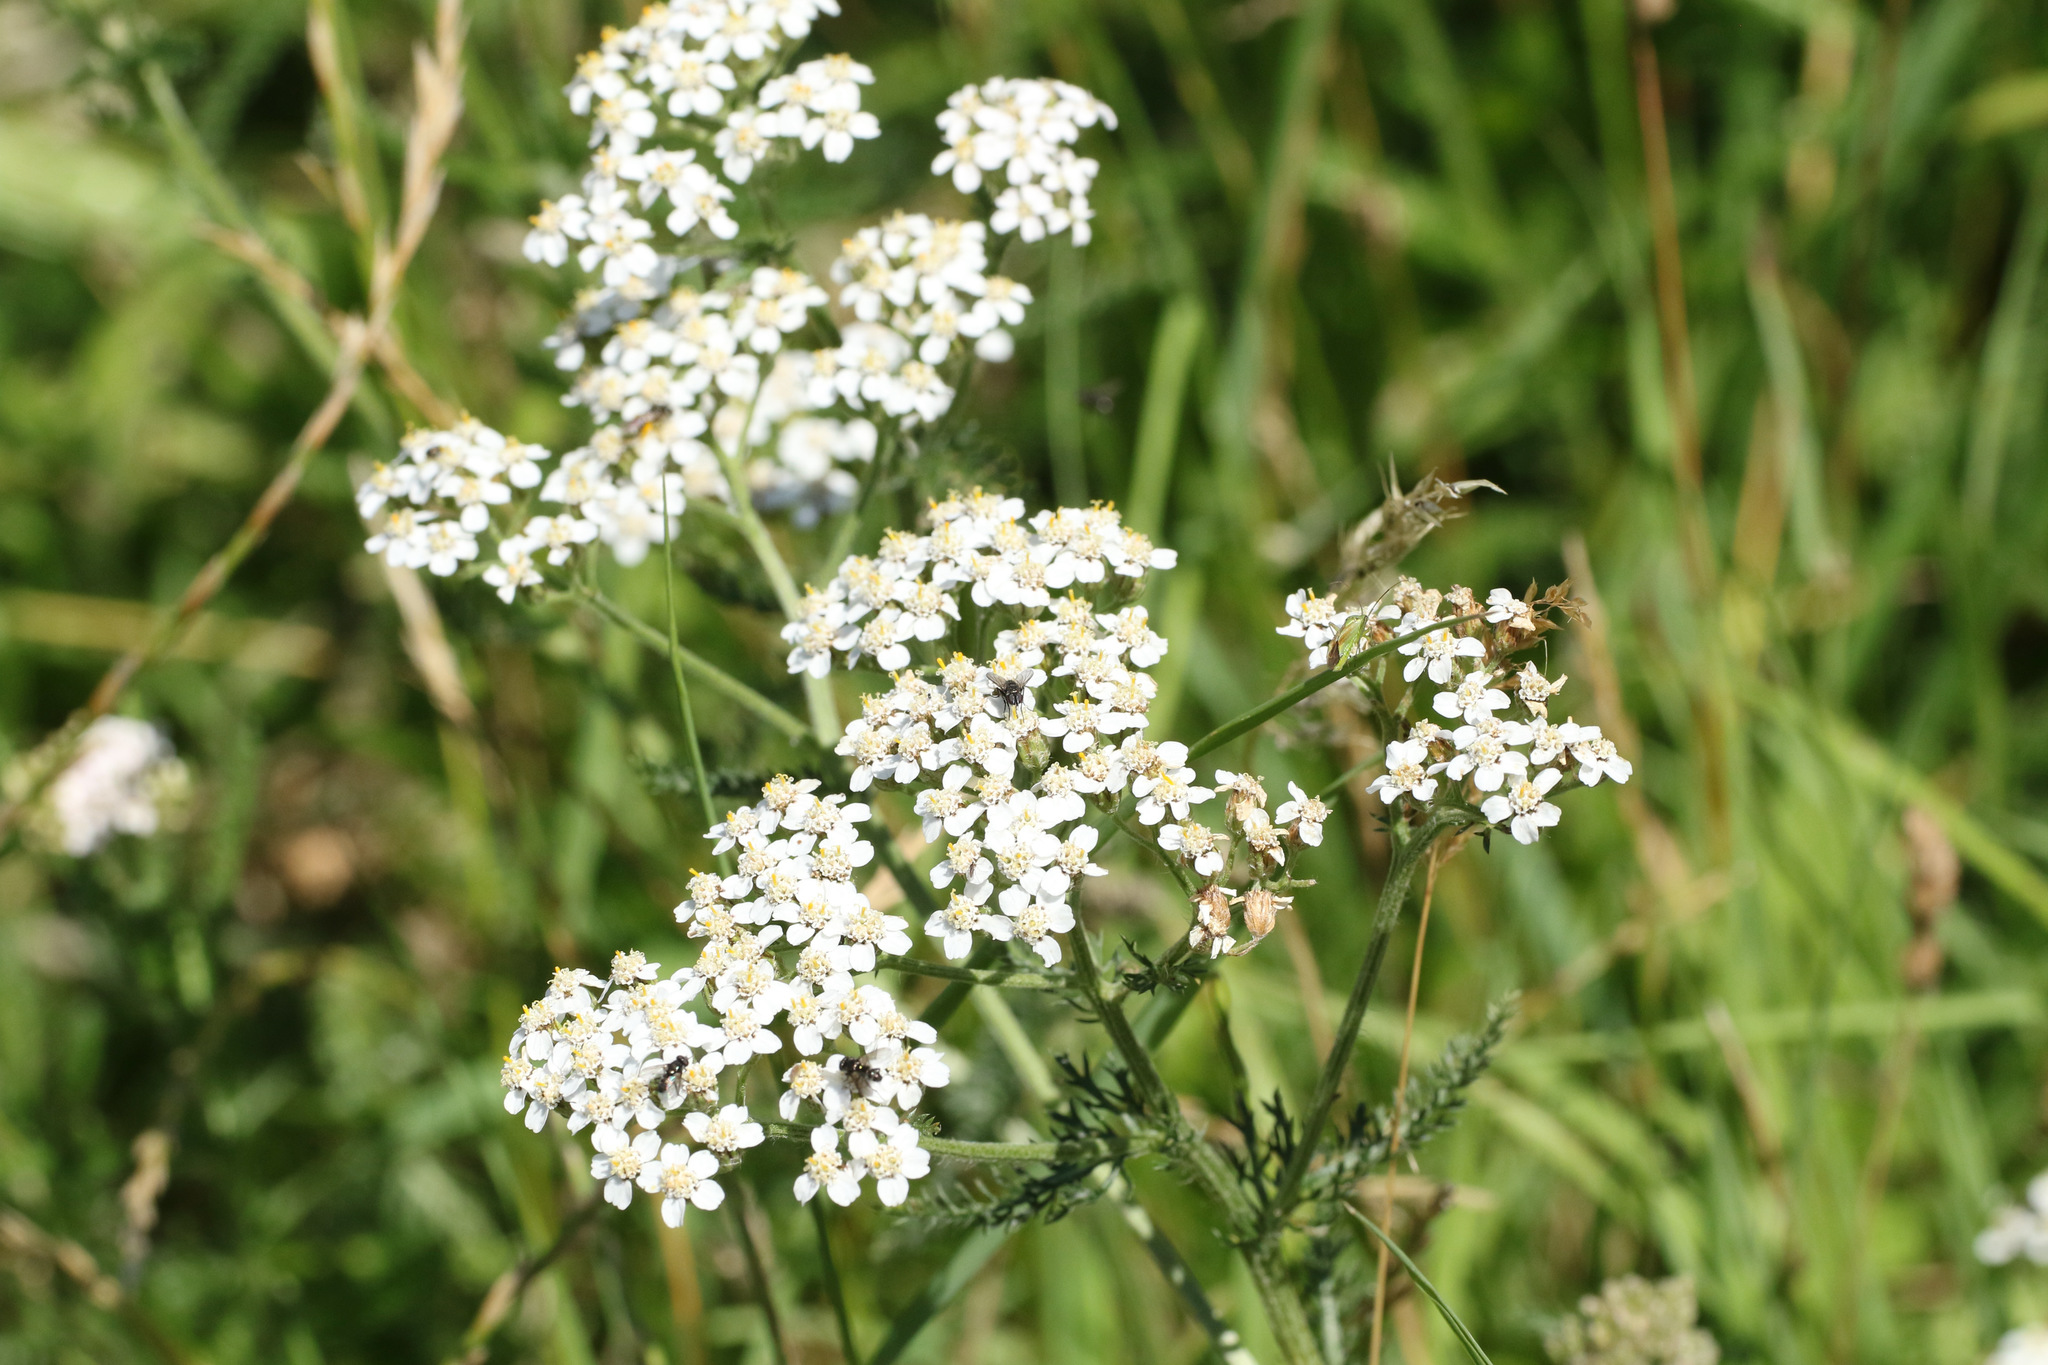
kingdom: Plantae
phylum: Tracheophyta
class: Magnoliopsida
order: Asterales
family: Asteraceae
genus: Achillea
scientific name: Achillea millefolium
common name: Yarrow
